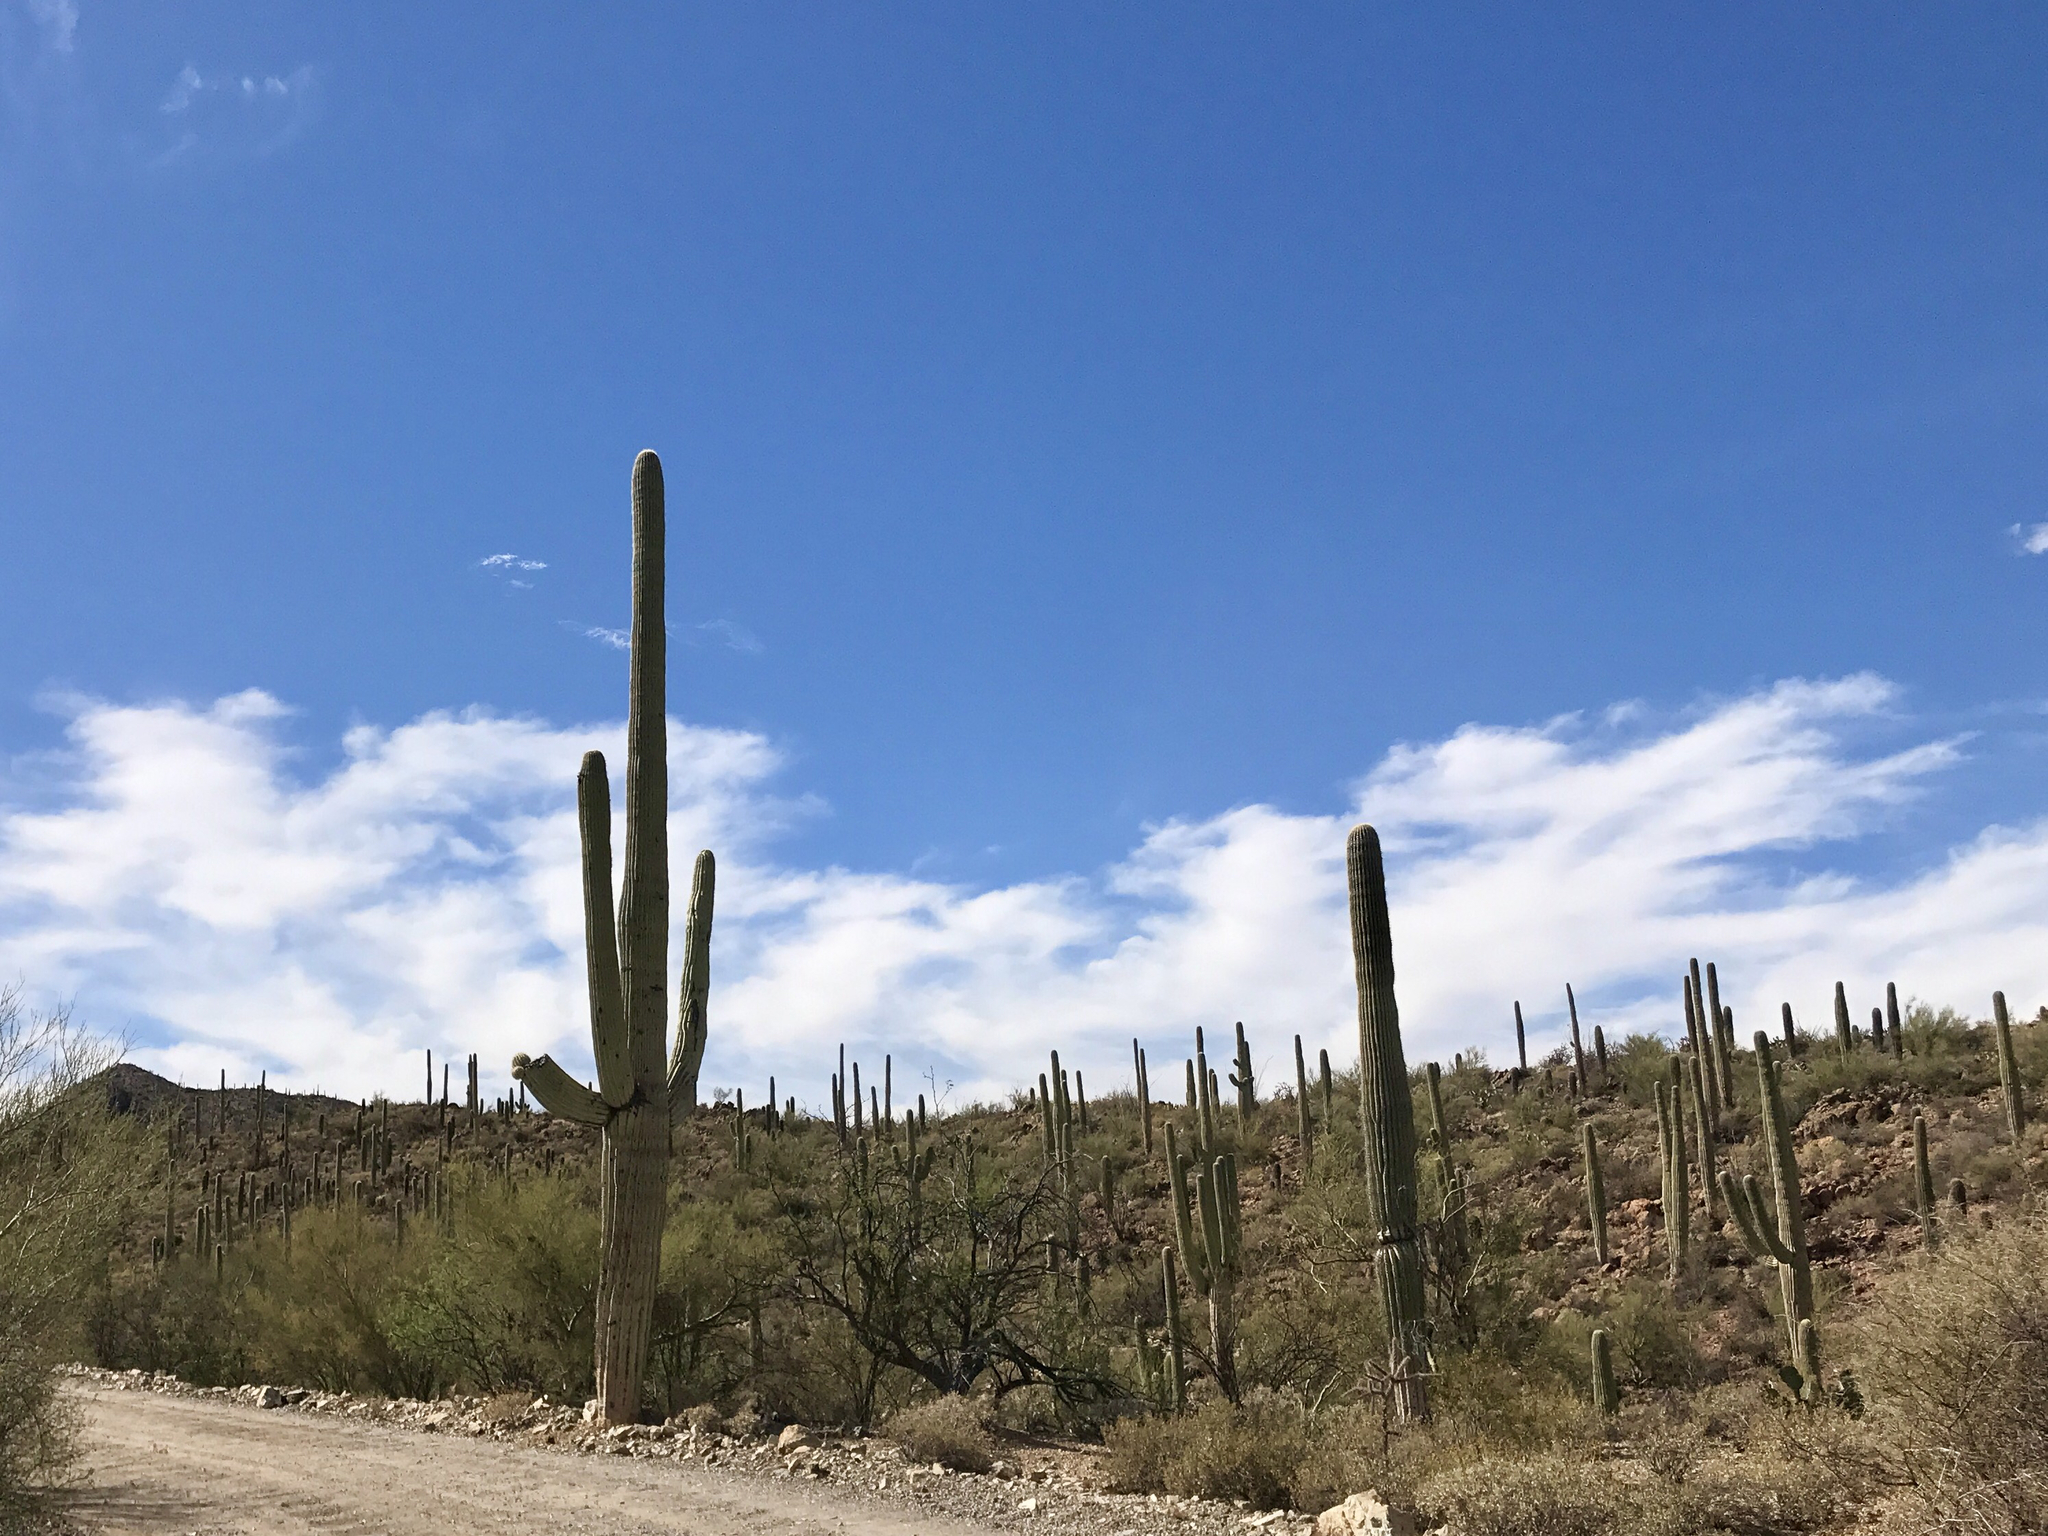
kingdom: Plantae
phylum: Tracheophyta
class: Magnoliopsida
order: Caryophyllales
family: Cactaceae
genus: Carnegiea
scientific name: Carnegiea gigantea
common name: Saguaro
